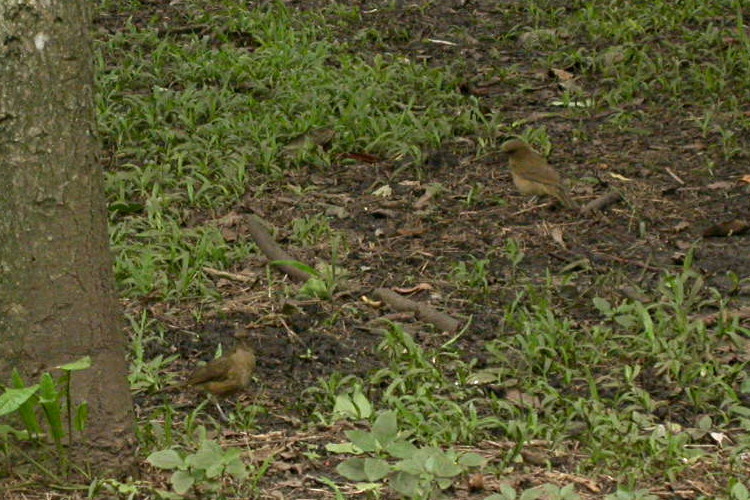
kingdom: Animalia
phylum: Chordata
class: Aves
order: Passeriformes
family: Turdidae
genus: Turdus
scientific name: Turdus grayi
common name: Clay-colored thrush
